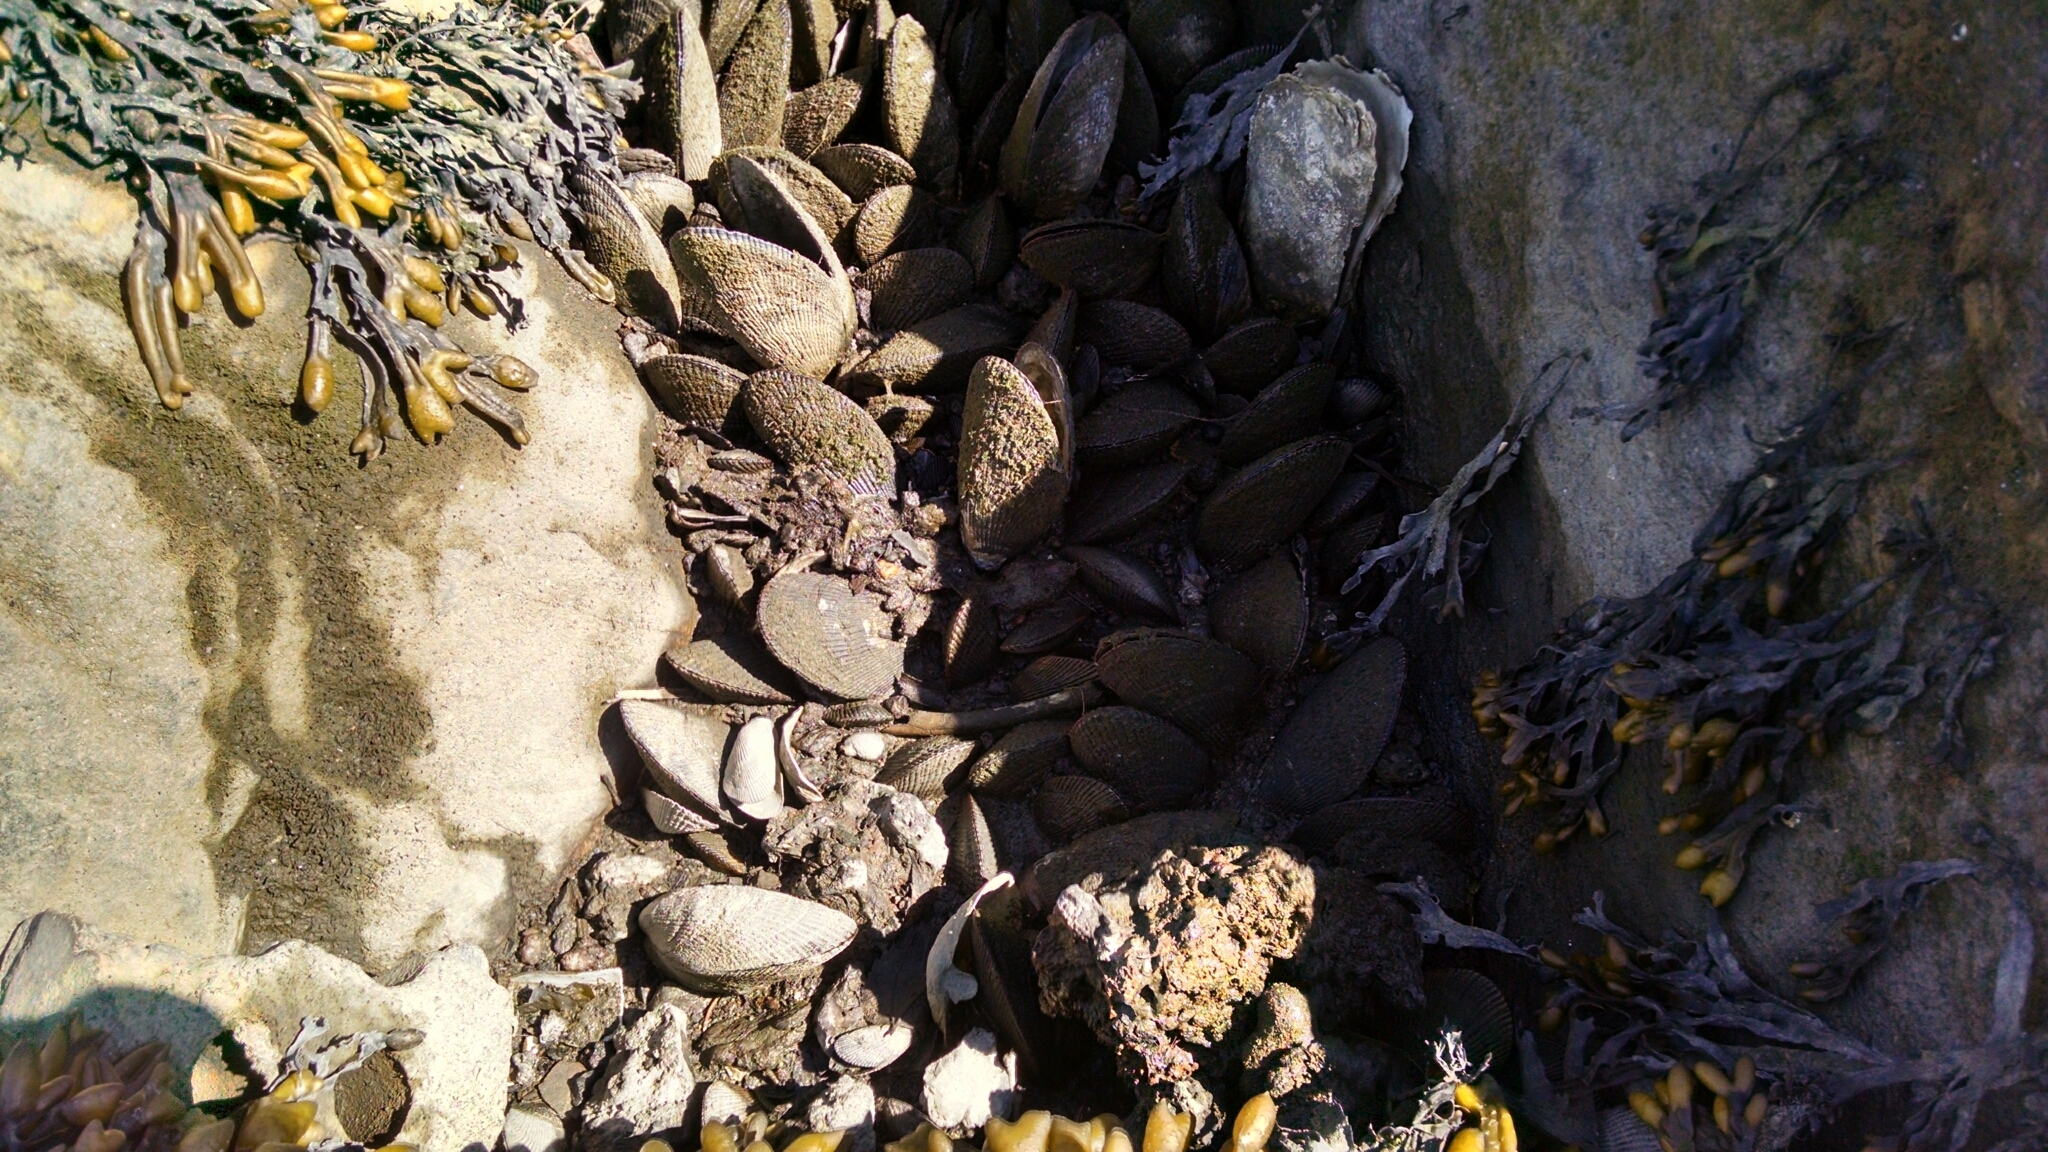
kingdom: Animalia
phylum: Mollusca
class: Bivalvia
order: Mytilida
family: Mytilidae
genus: Geukensia
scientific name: Geukensia demissa
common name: Ribbed mussel
